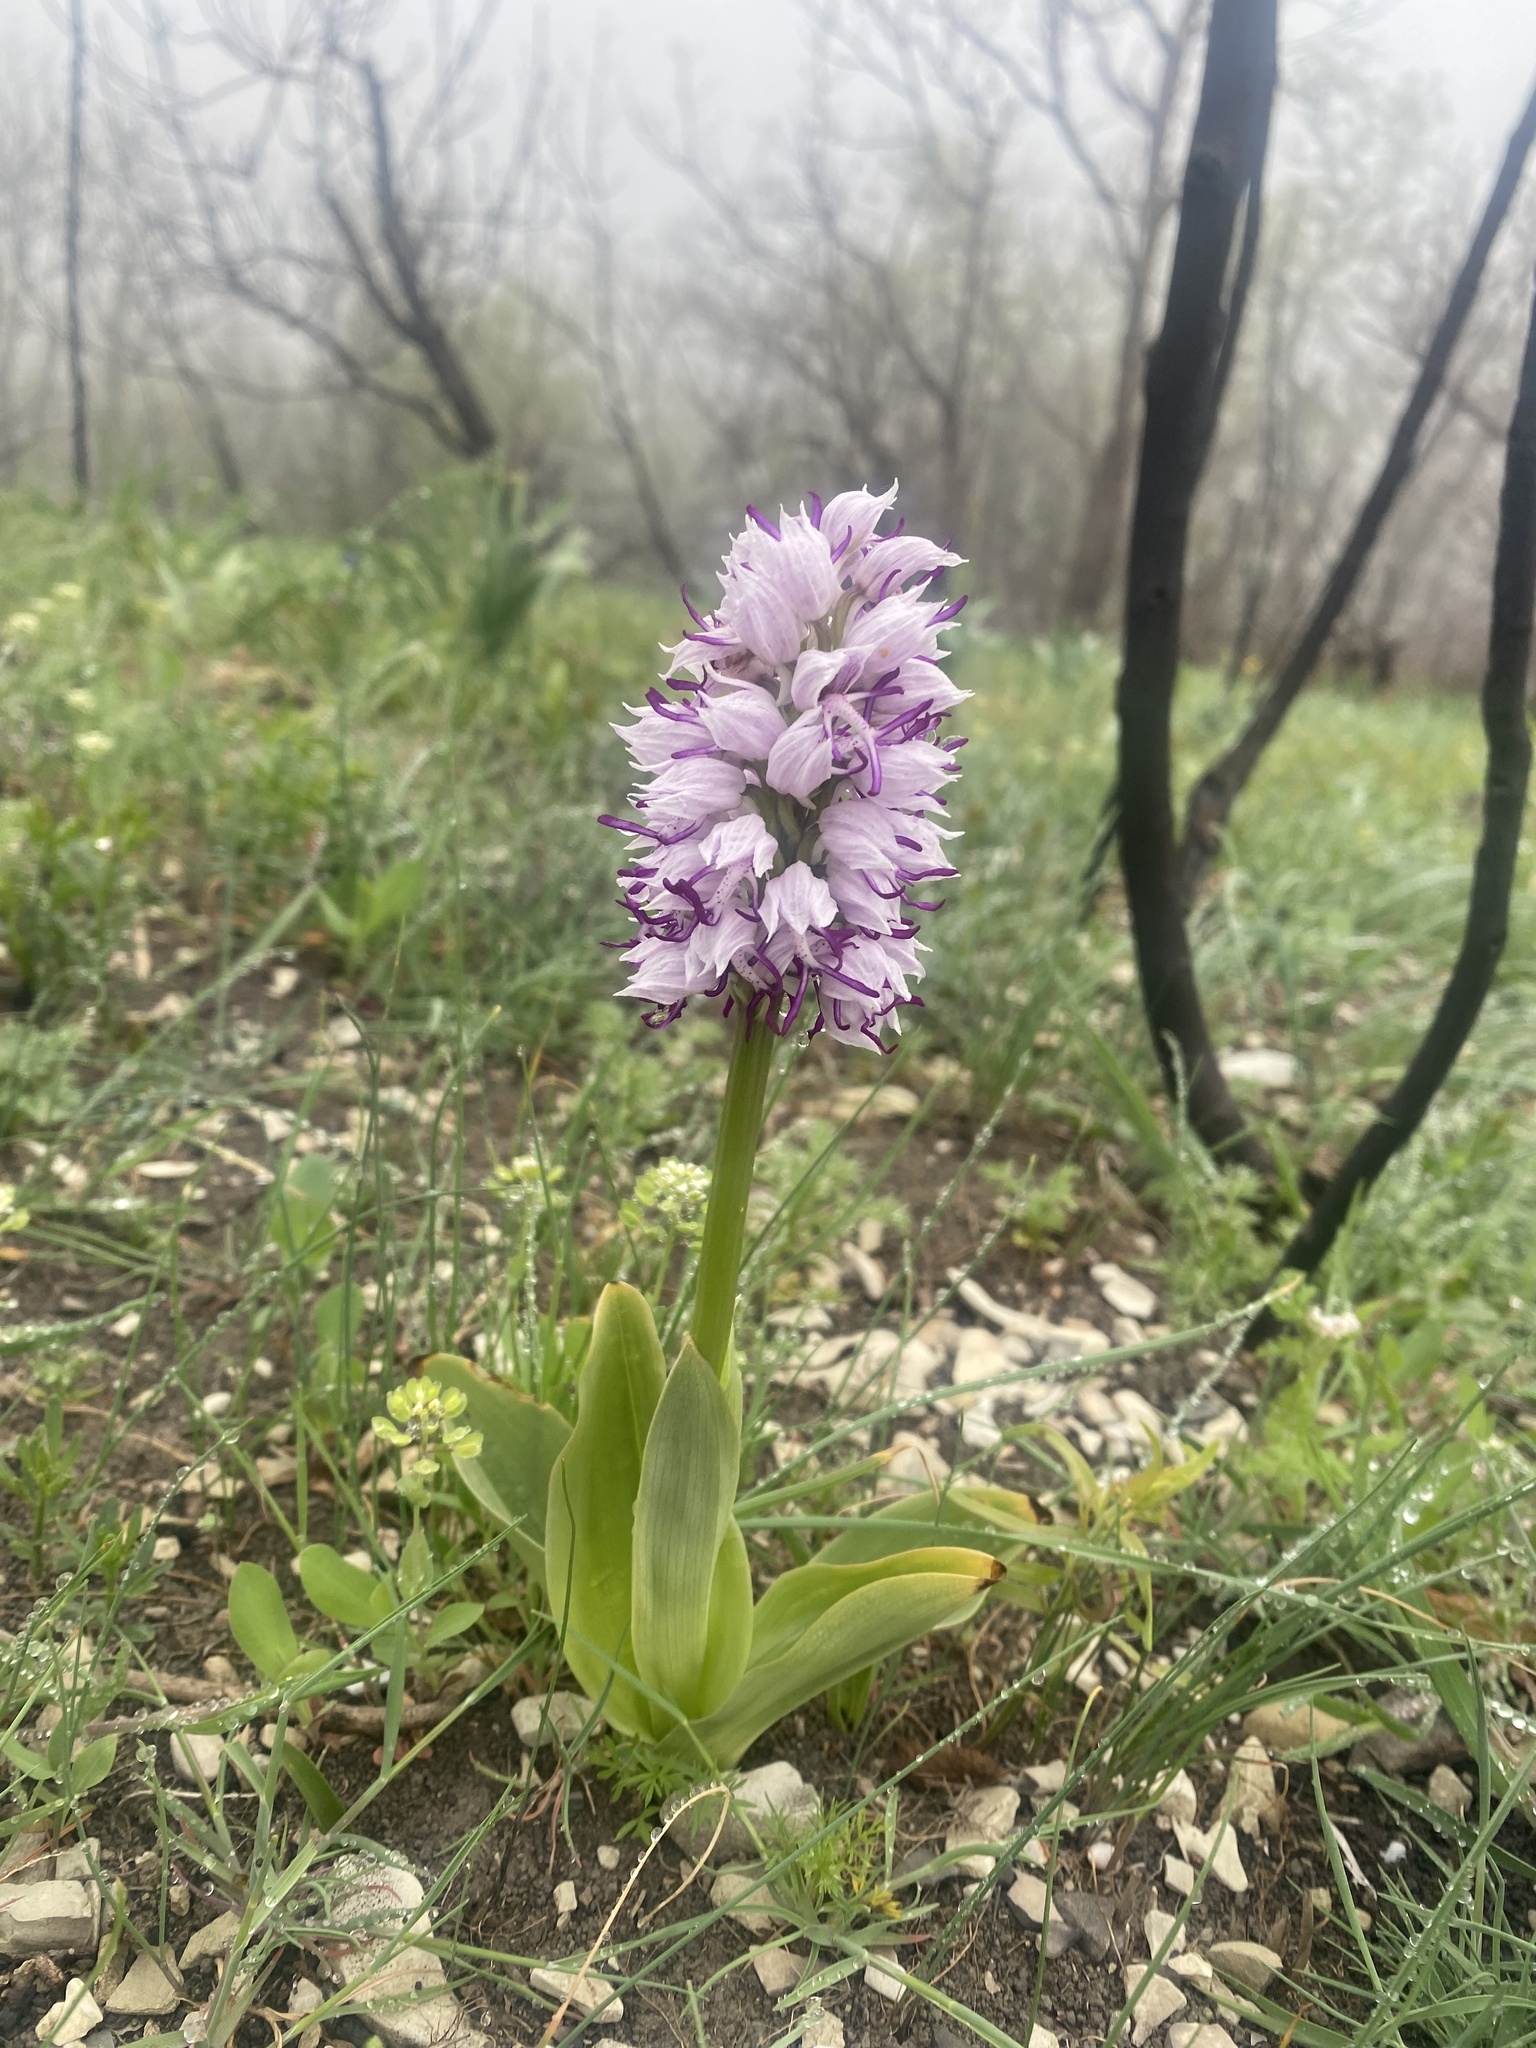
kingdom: Plantae
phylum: Tracheophyta
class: Liliopsida
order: Asparagales
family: Orchidaceae
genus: Orchis
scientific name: Orchis simia
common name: Monkey orchid
